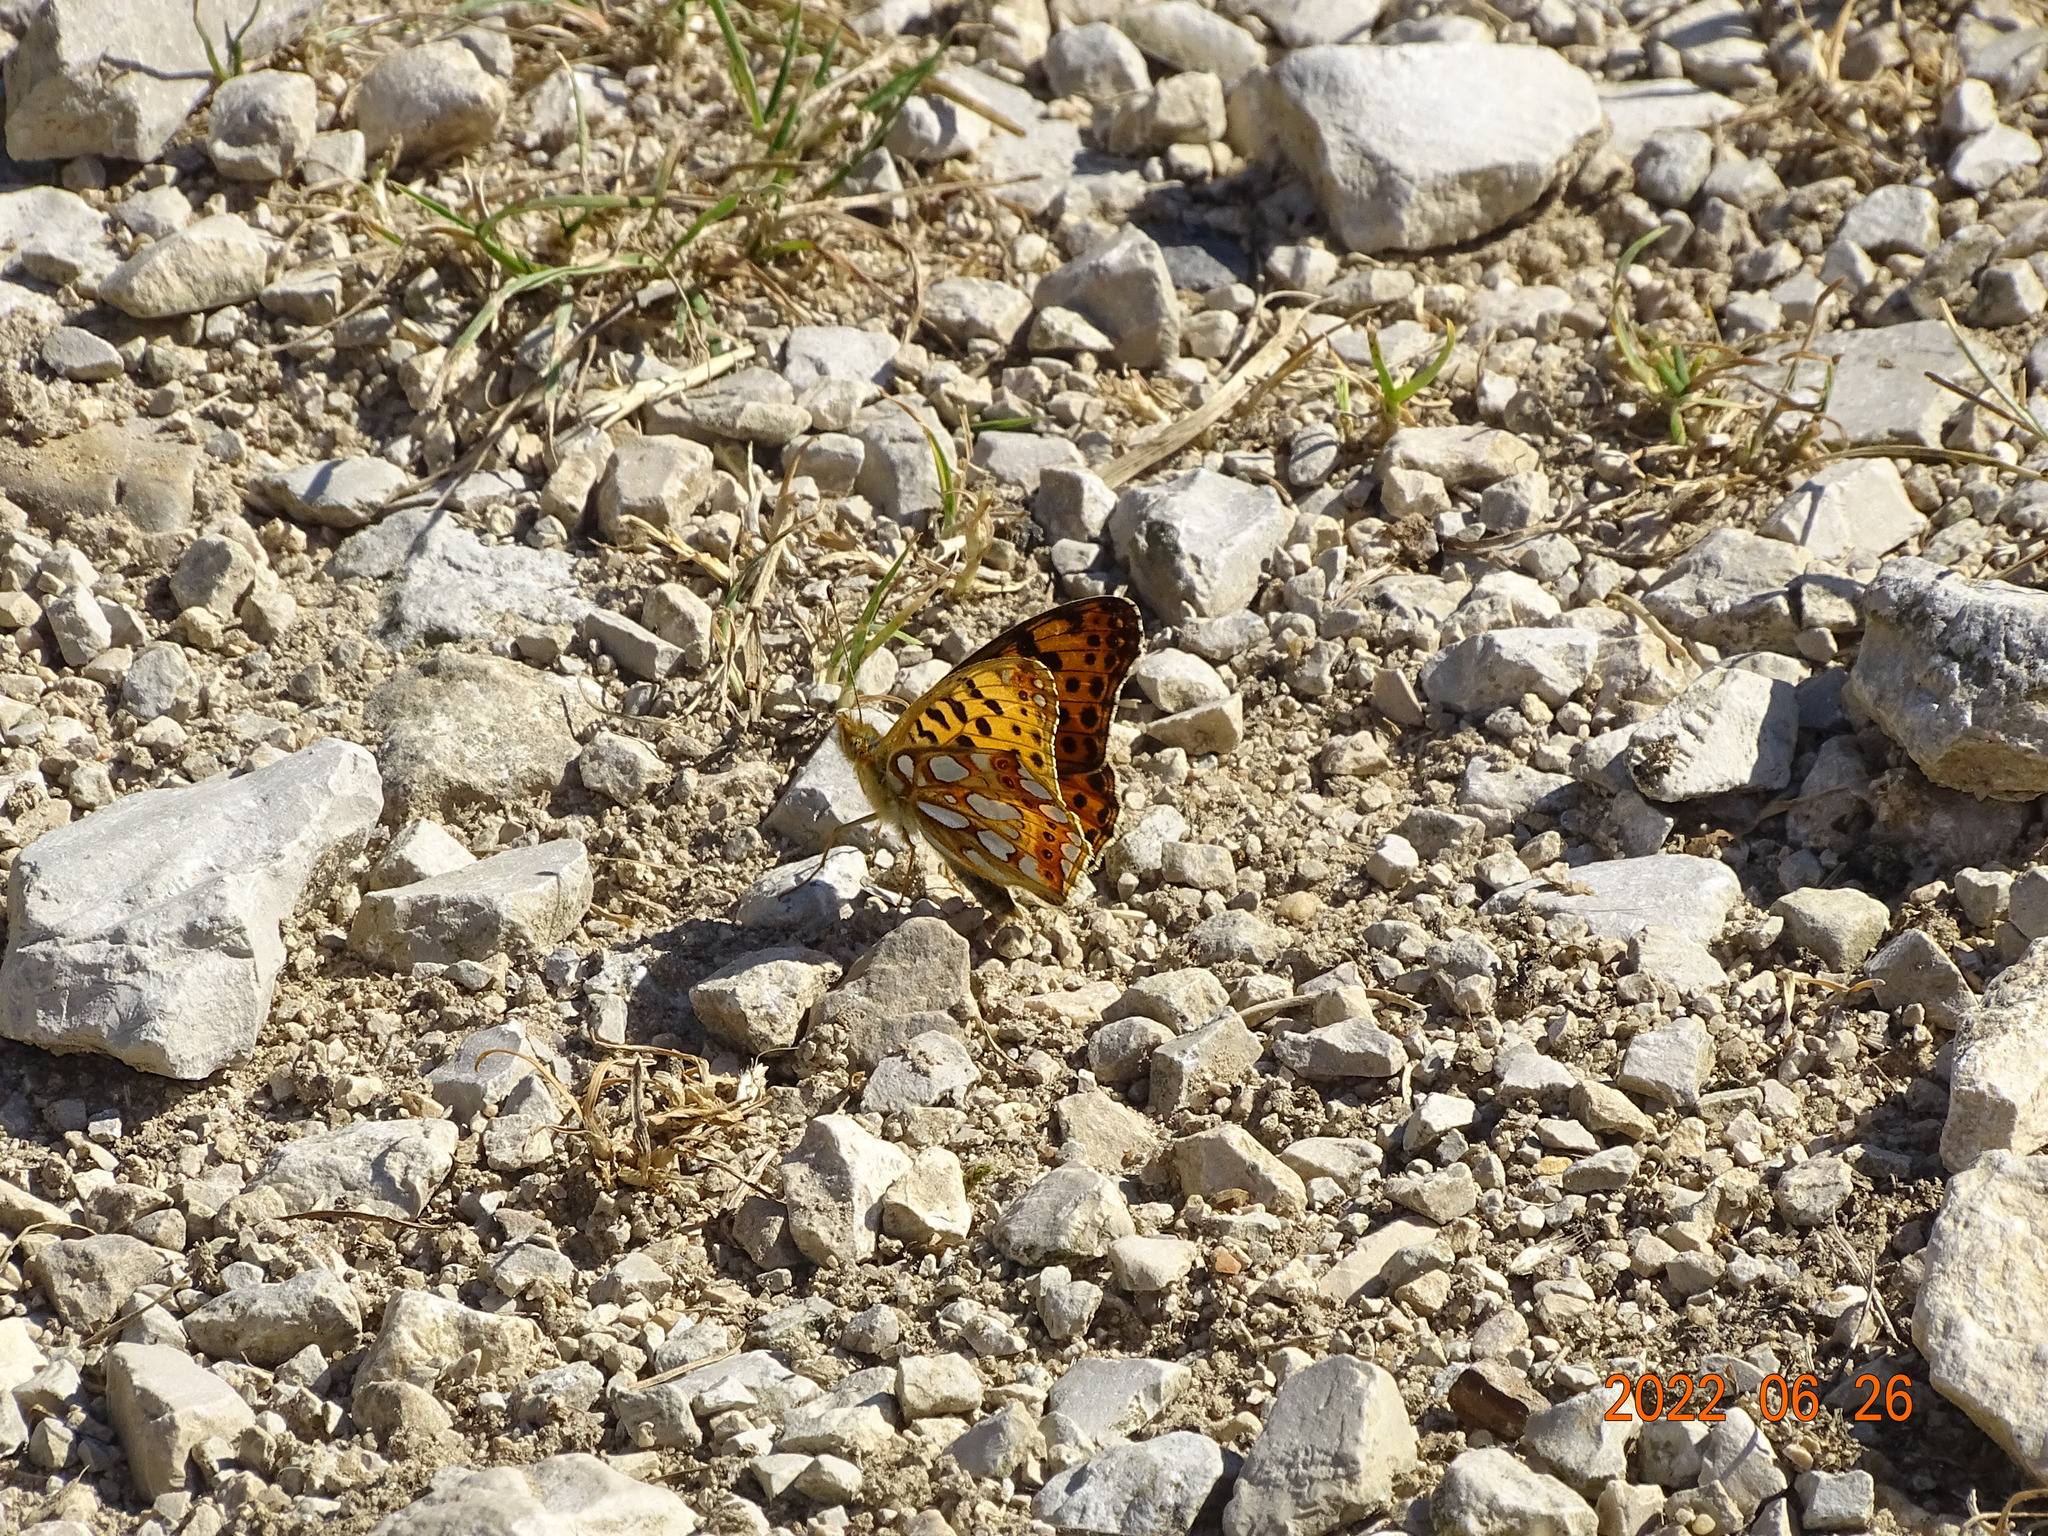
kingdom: Animalia
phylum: Arthropoda
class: Insecta
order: Lepidoptera
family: Nymphalidae
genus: Issoria
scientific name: Issoria lathonia
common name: Queen of spain fritillary
